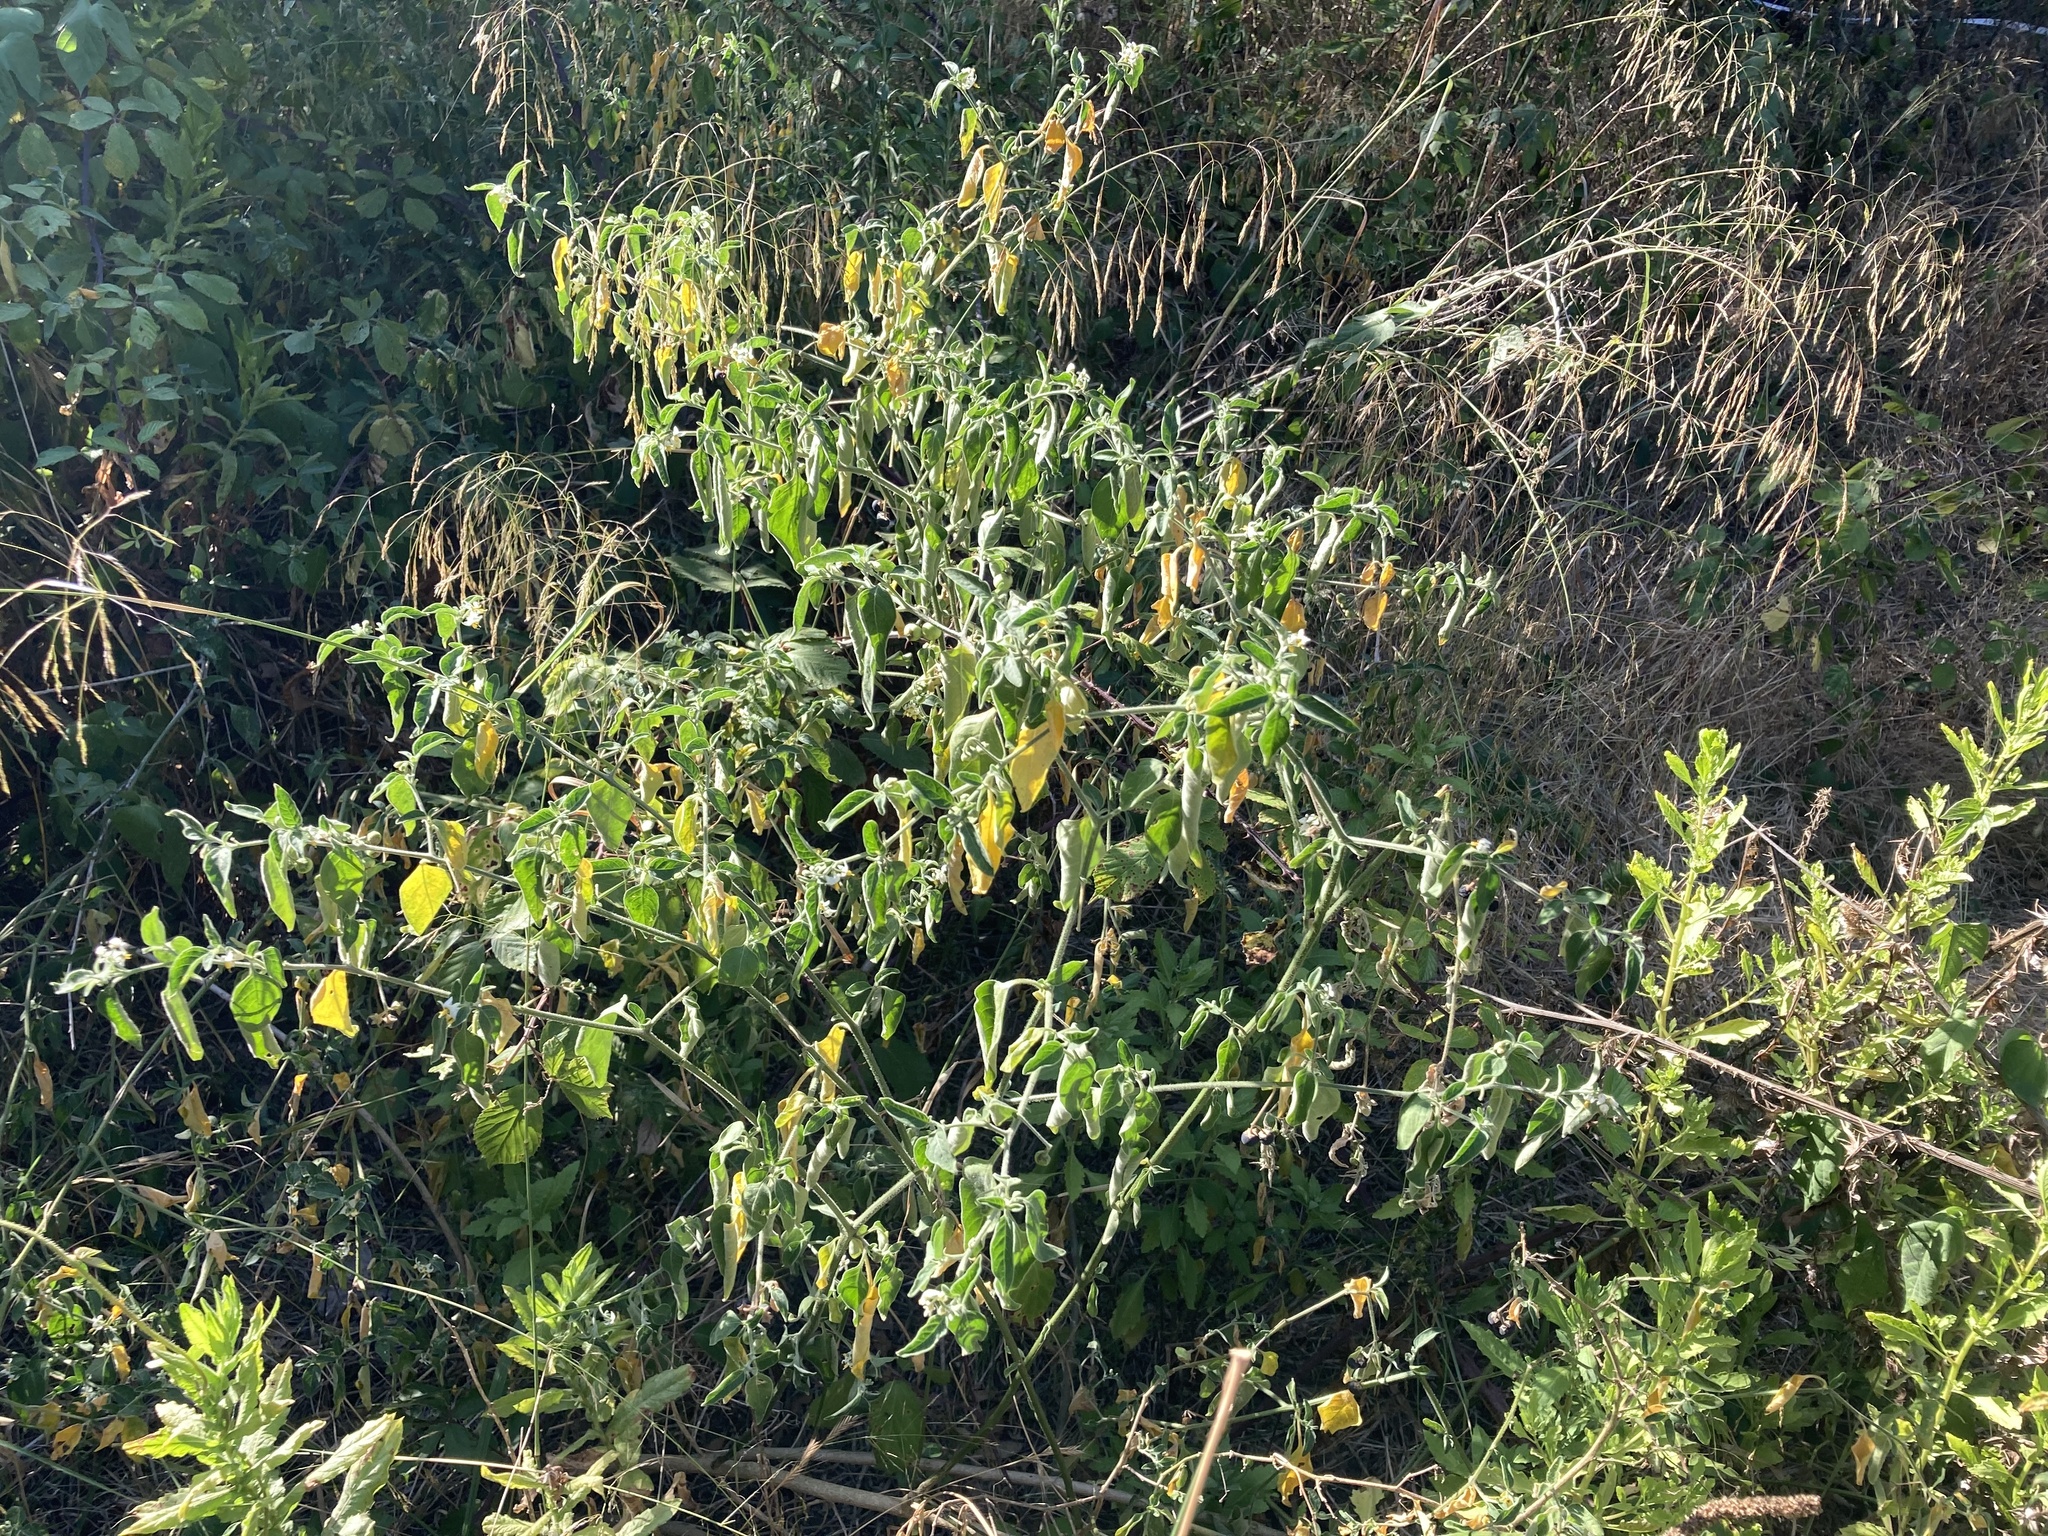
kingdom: Plantae
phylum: Tracheophyta
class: Magnoliopsida
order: Solanales
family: Solanaceae
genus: Solanum
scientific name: Solanum chenopodioides
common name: Tall nightshade
